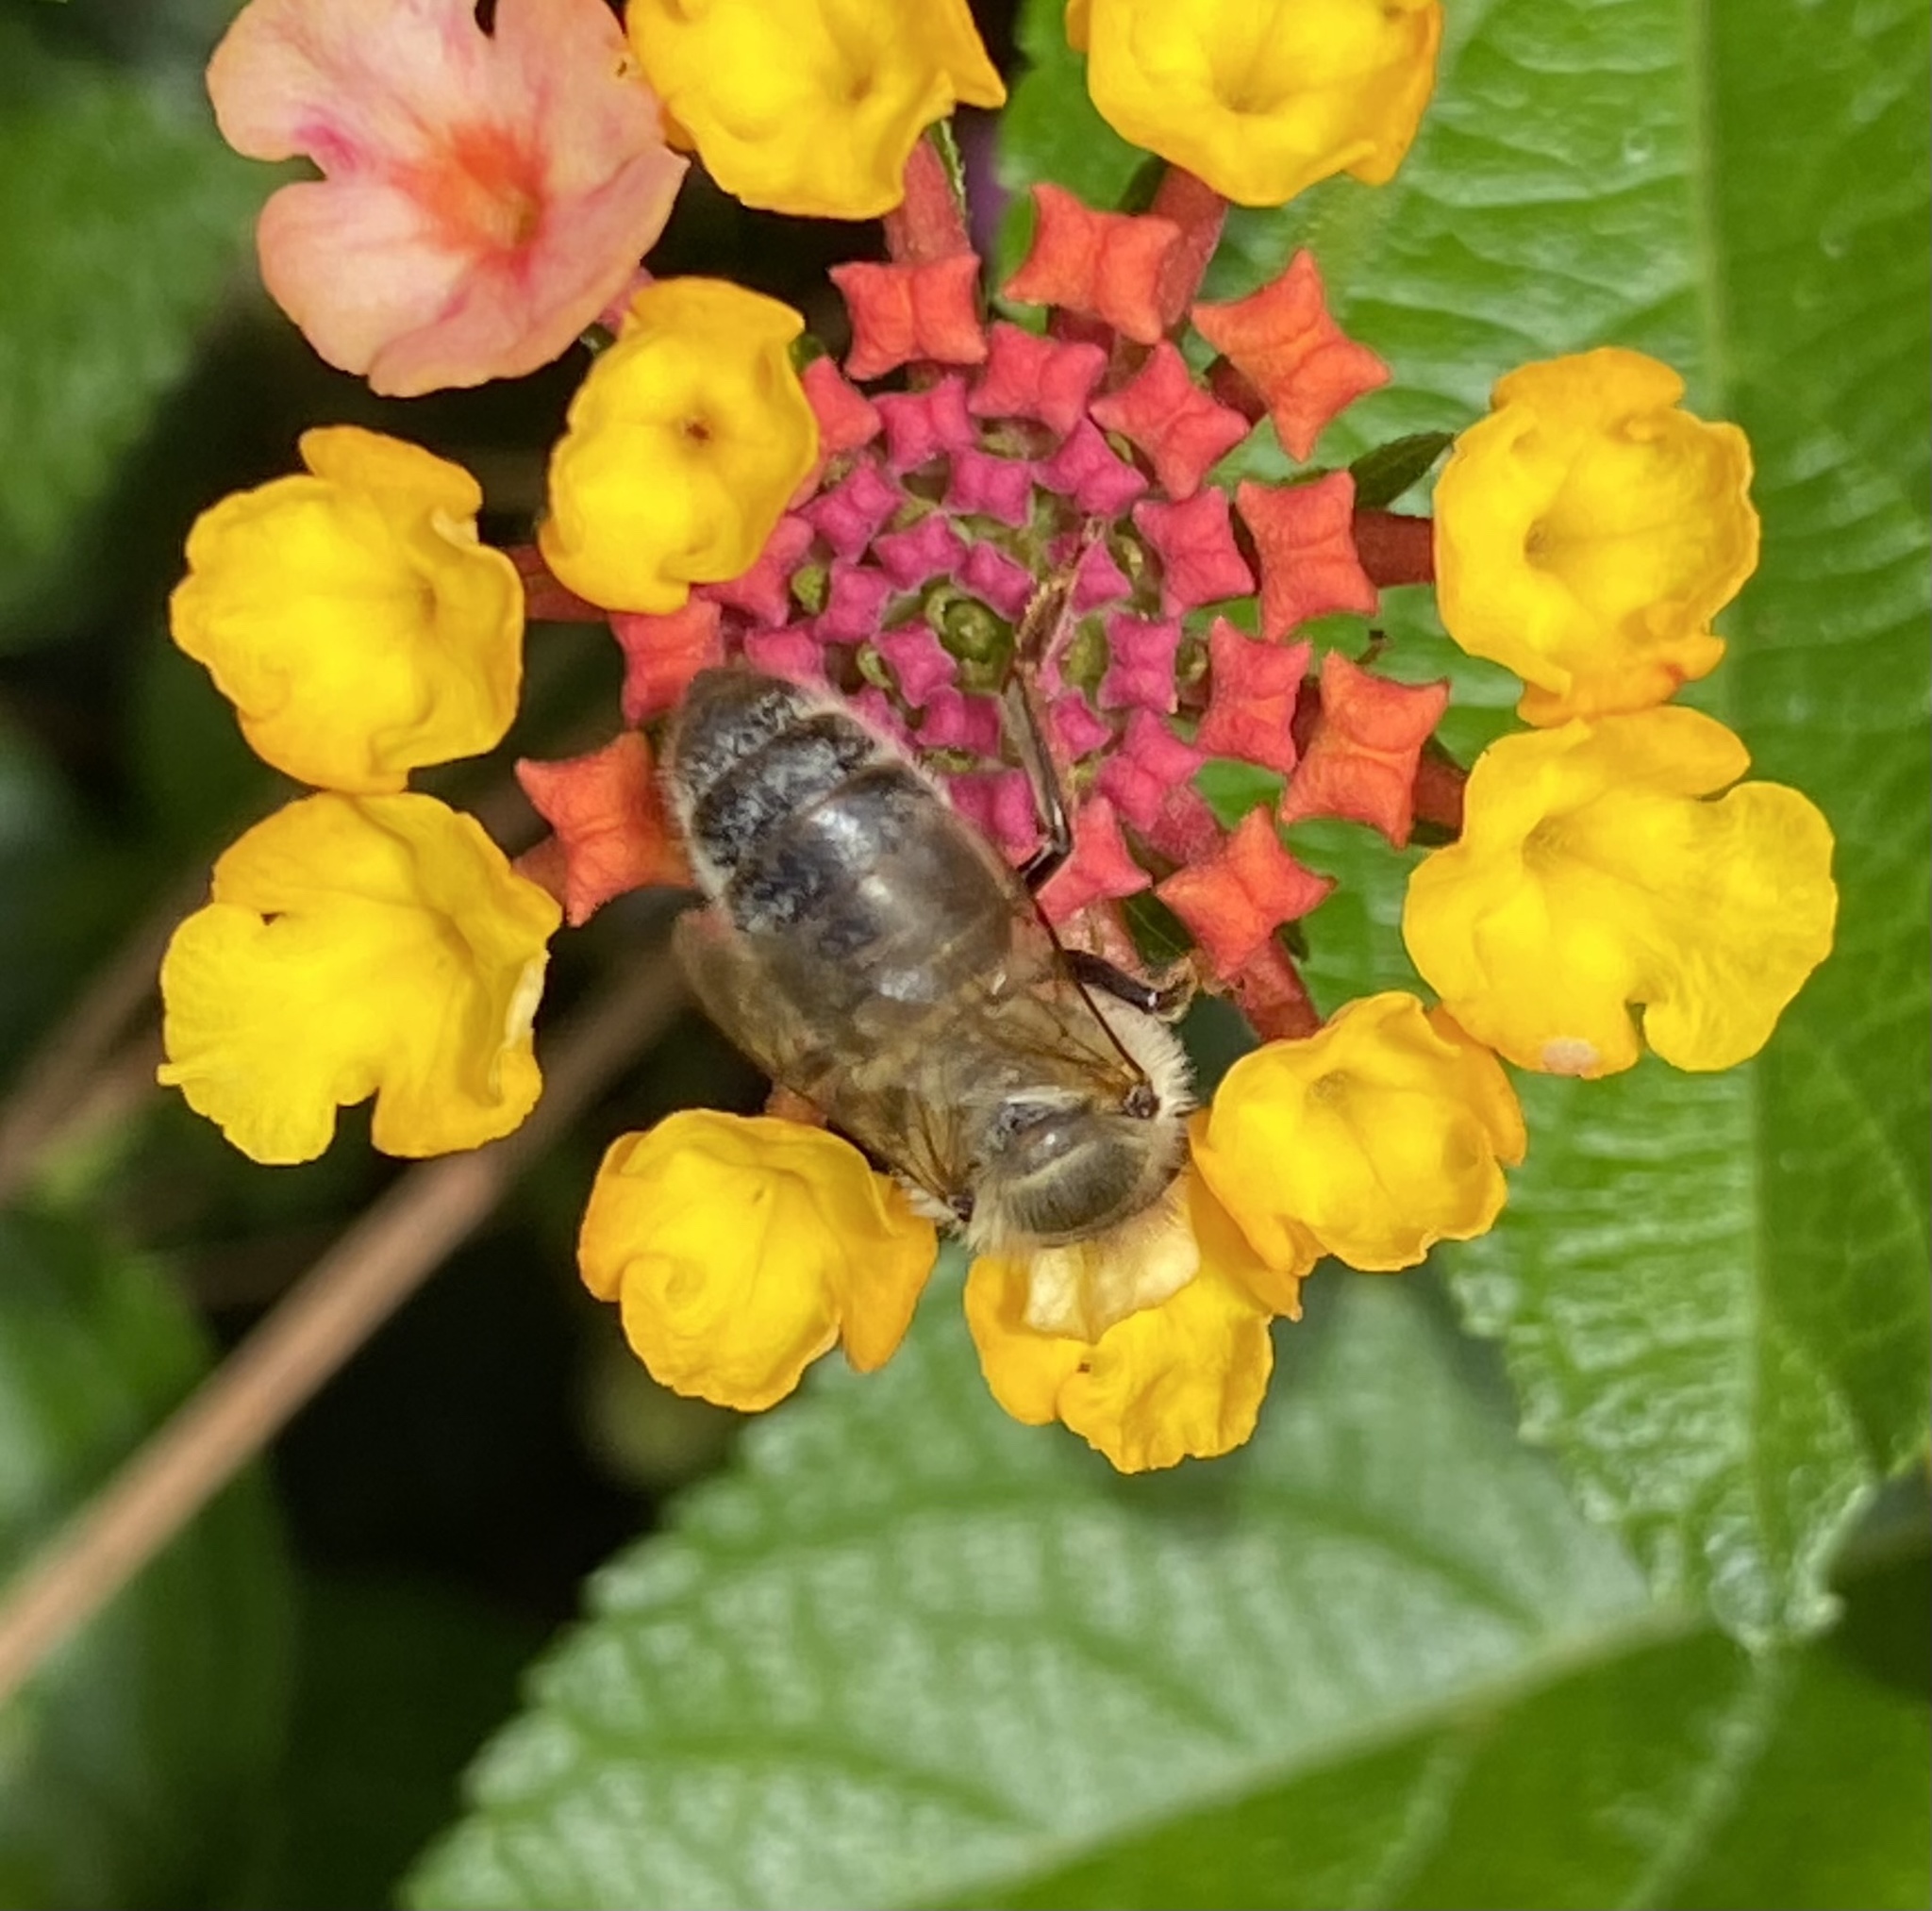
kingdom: Animalia
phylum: Arthropoda
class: Insecta
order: Hymenoptera
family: Apidae
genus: Apis
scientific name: Apis mellifera
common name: Honey bee
